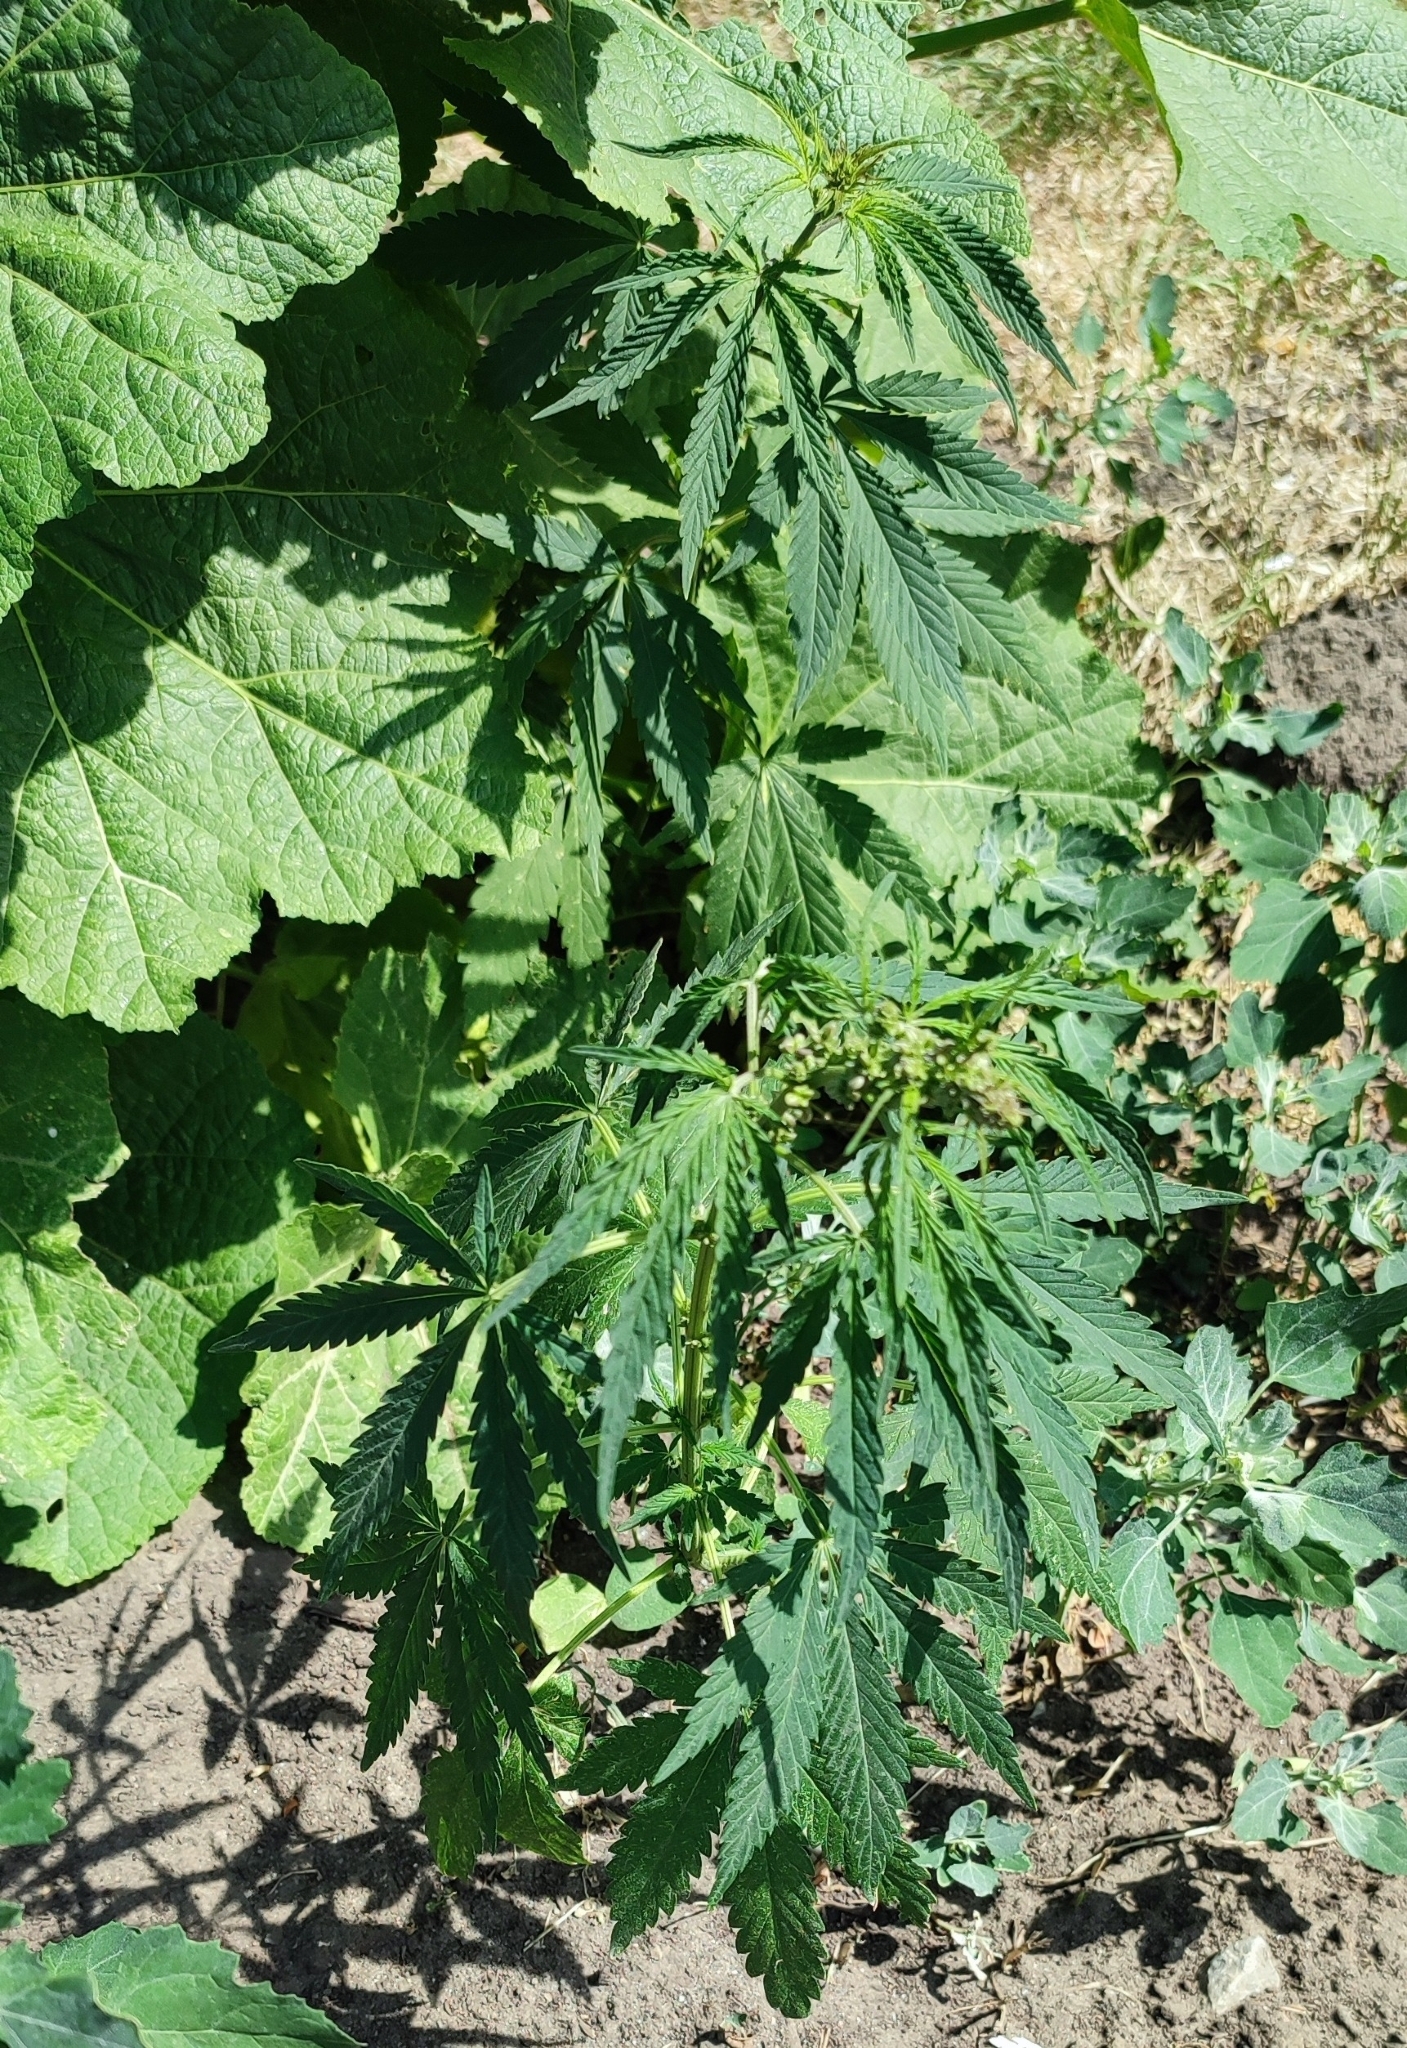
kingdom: Plantae
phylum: Tracheophyta
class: Magnoliopsida
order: Rosales
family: Cannabaceae
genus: Cannabis
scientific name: Cannabis sativa
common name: Hemp
